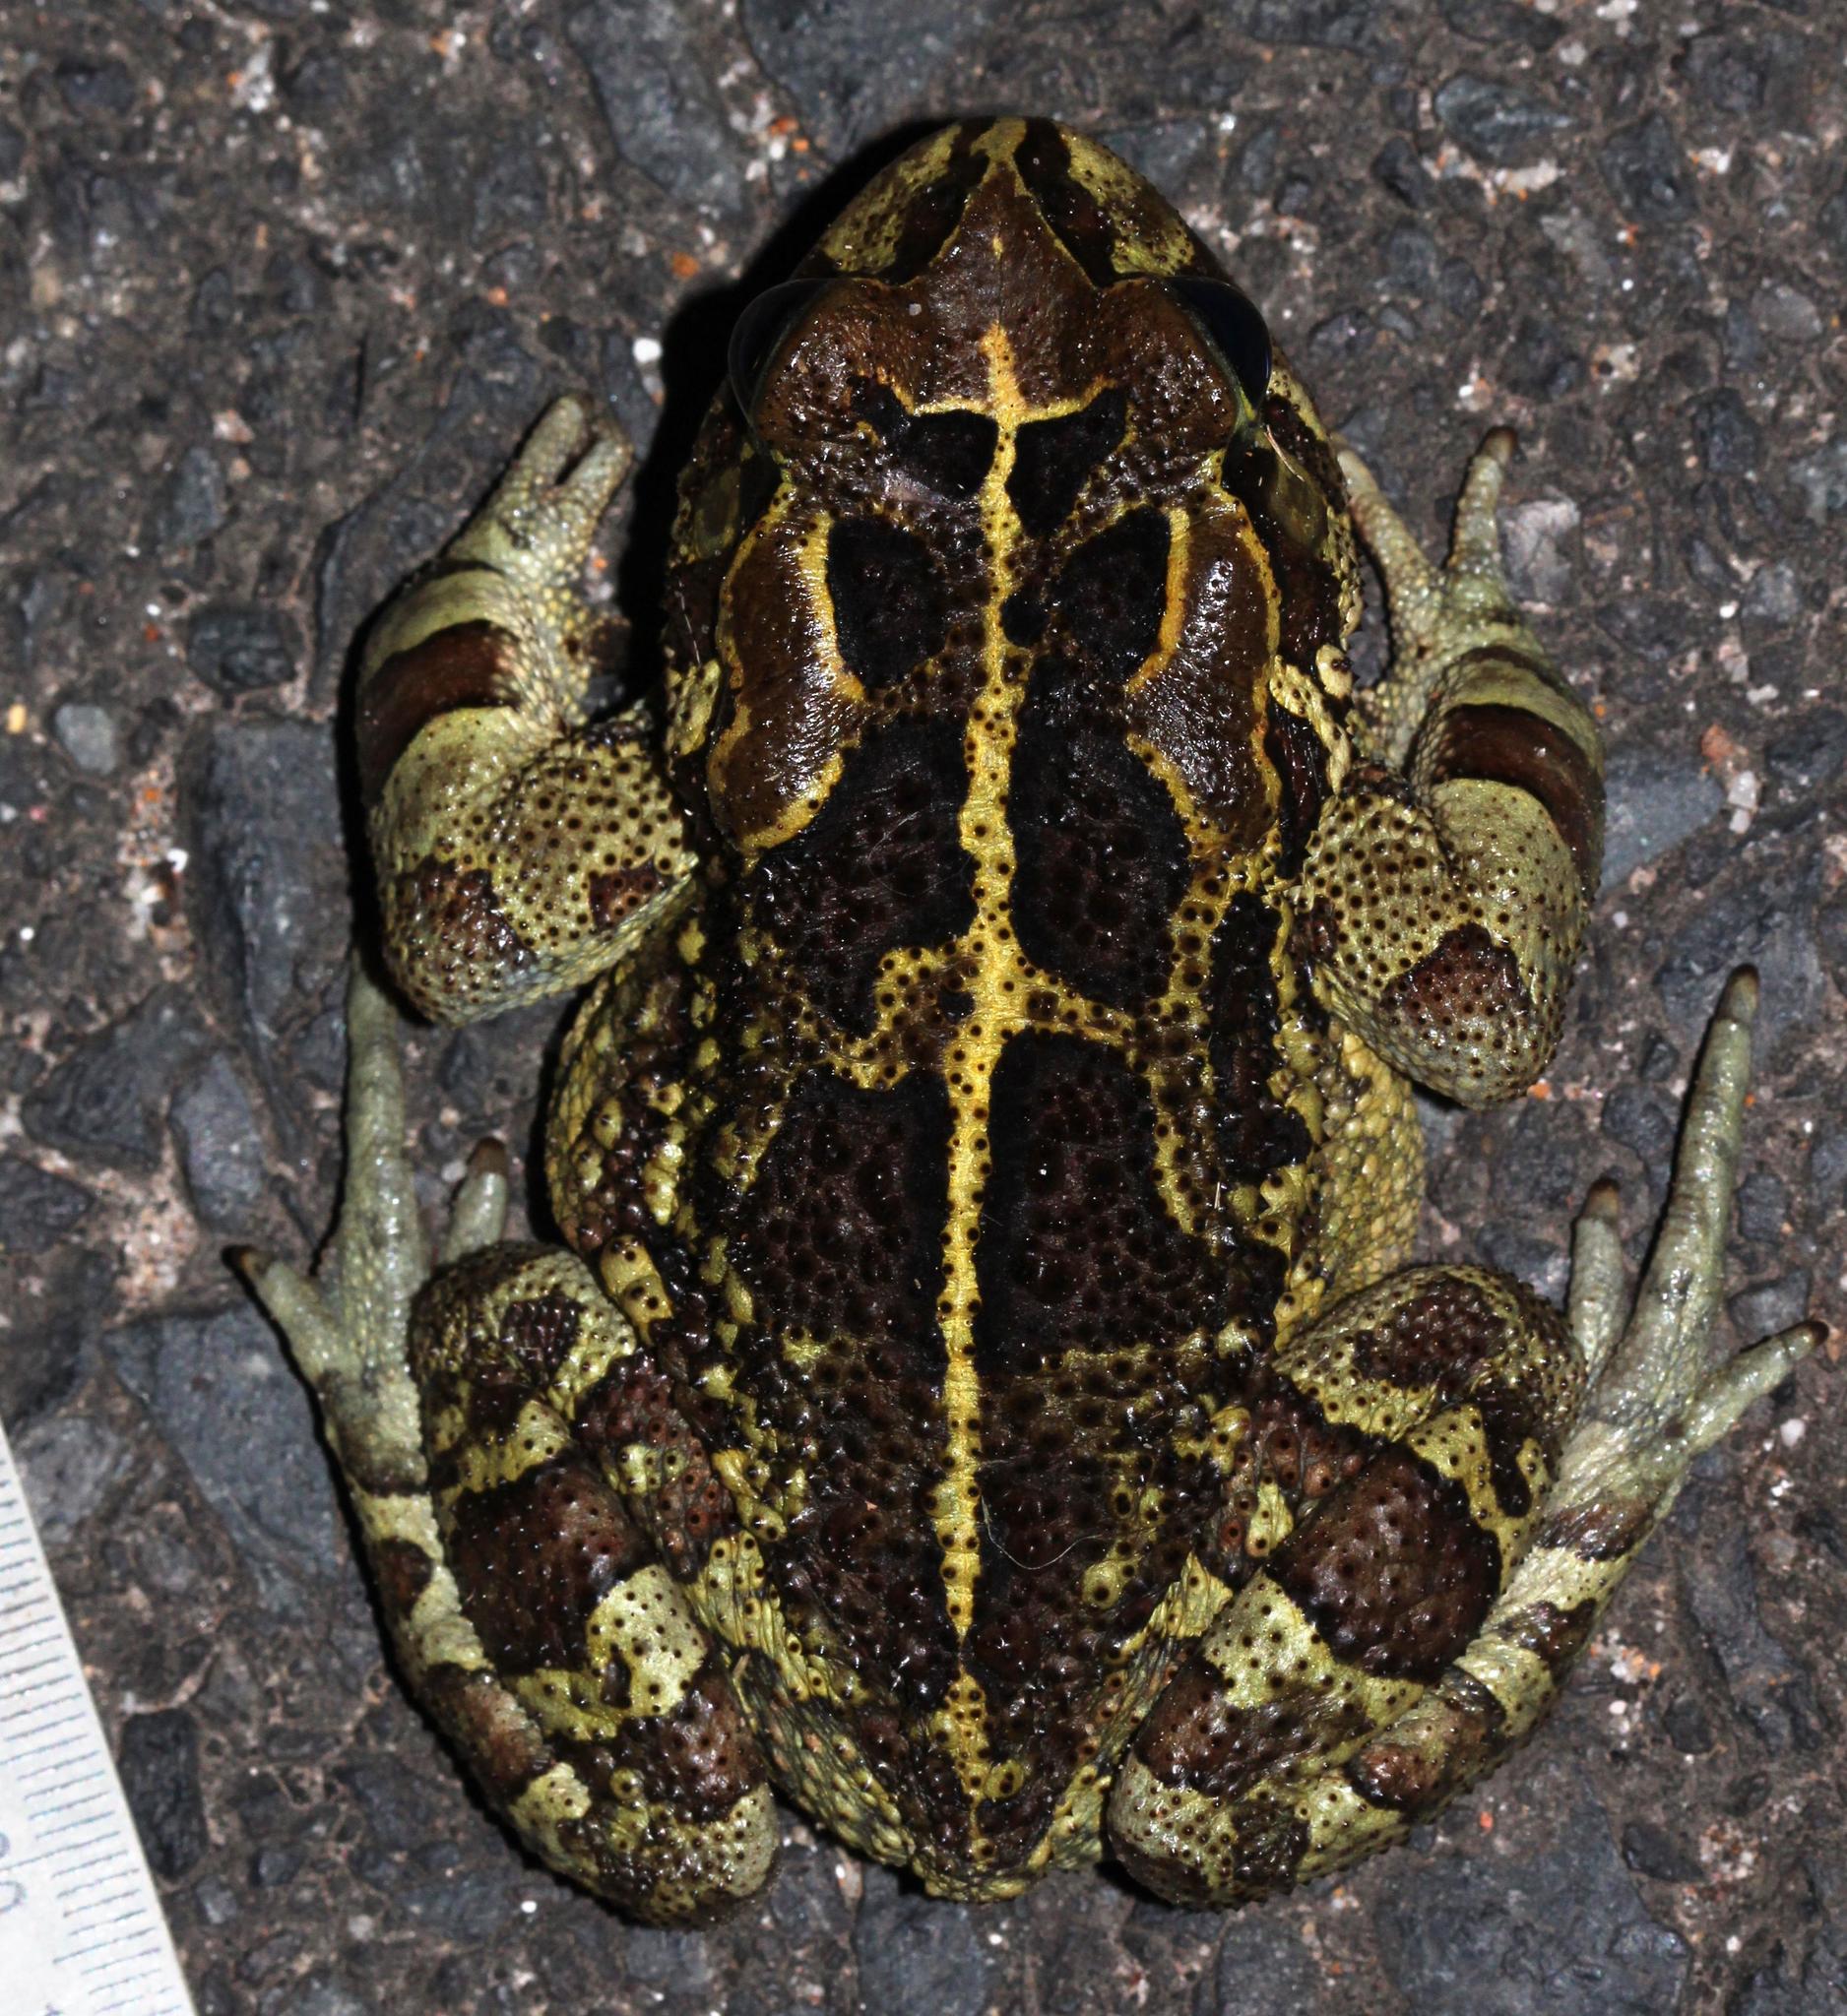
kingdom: Animalia
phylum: Chordata
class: Amphibia
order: Anura
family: Bufonidae
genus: Sclerophrys
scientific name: Sclerophrys pantherina
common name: Panther toad
